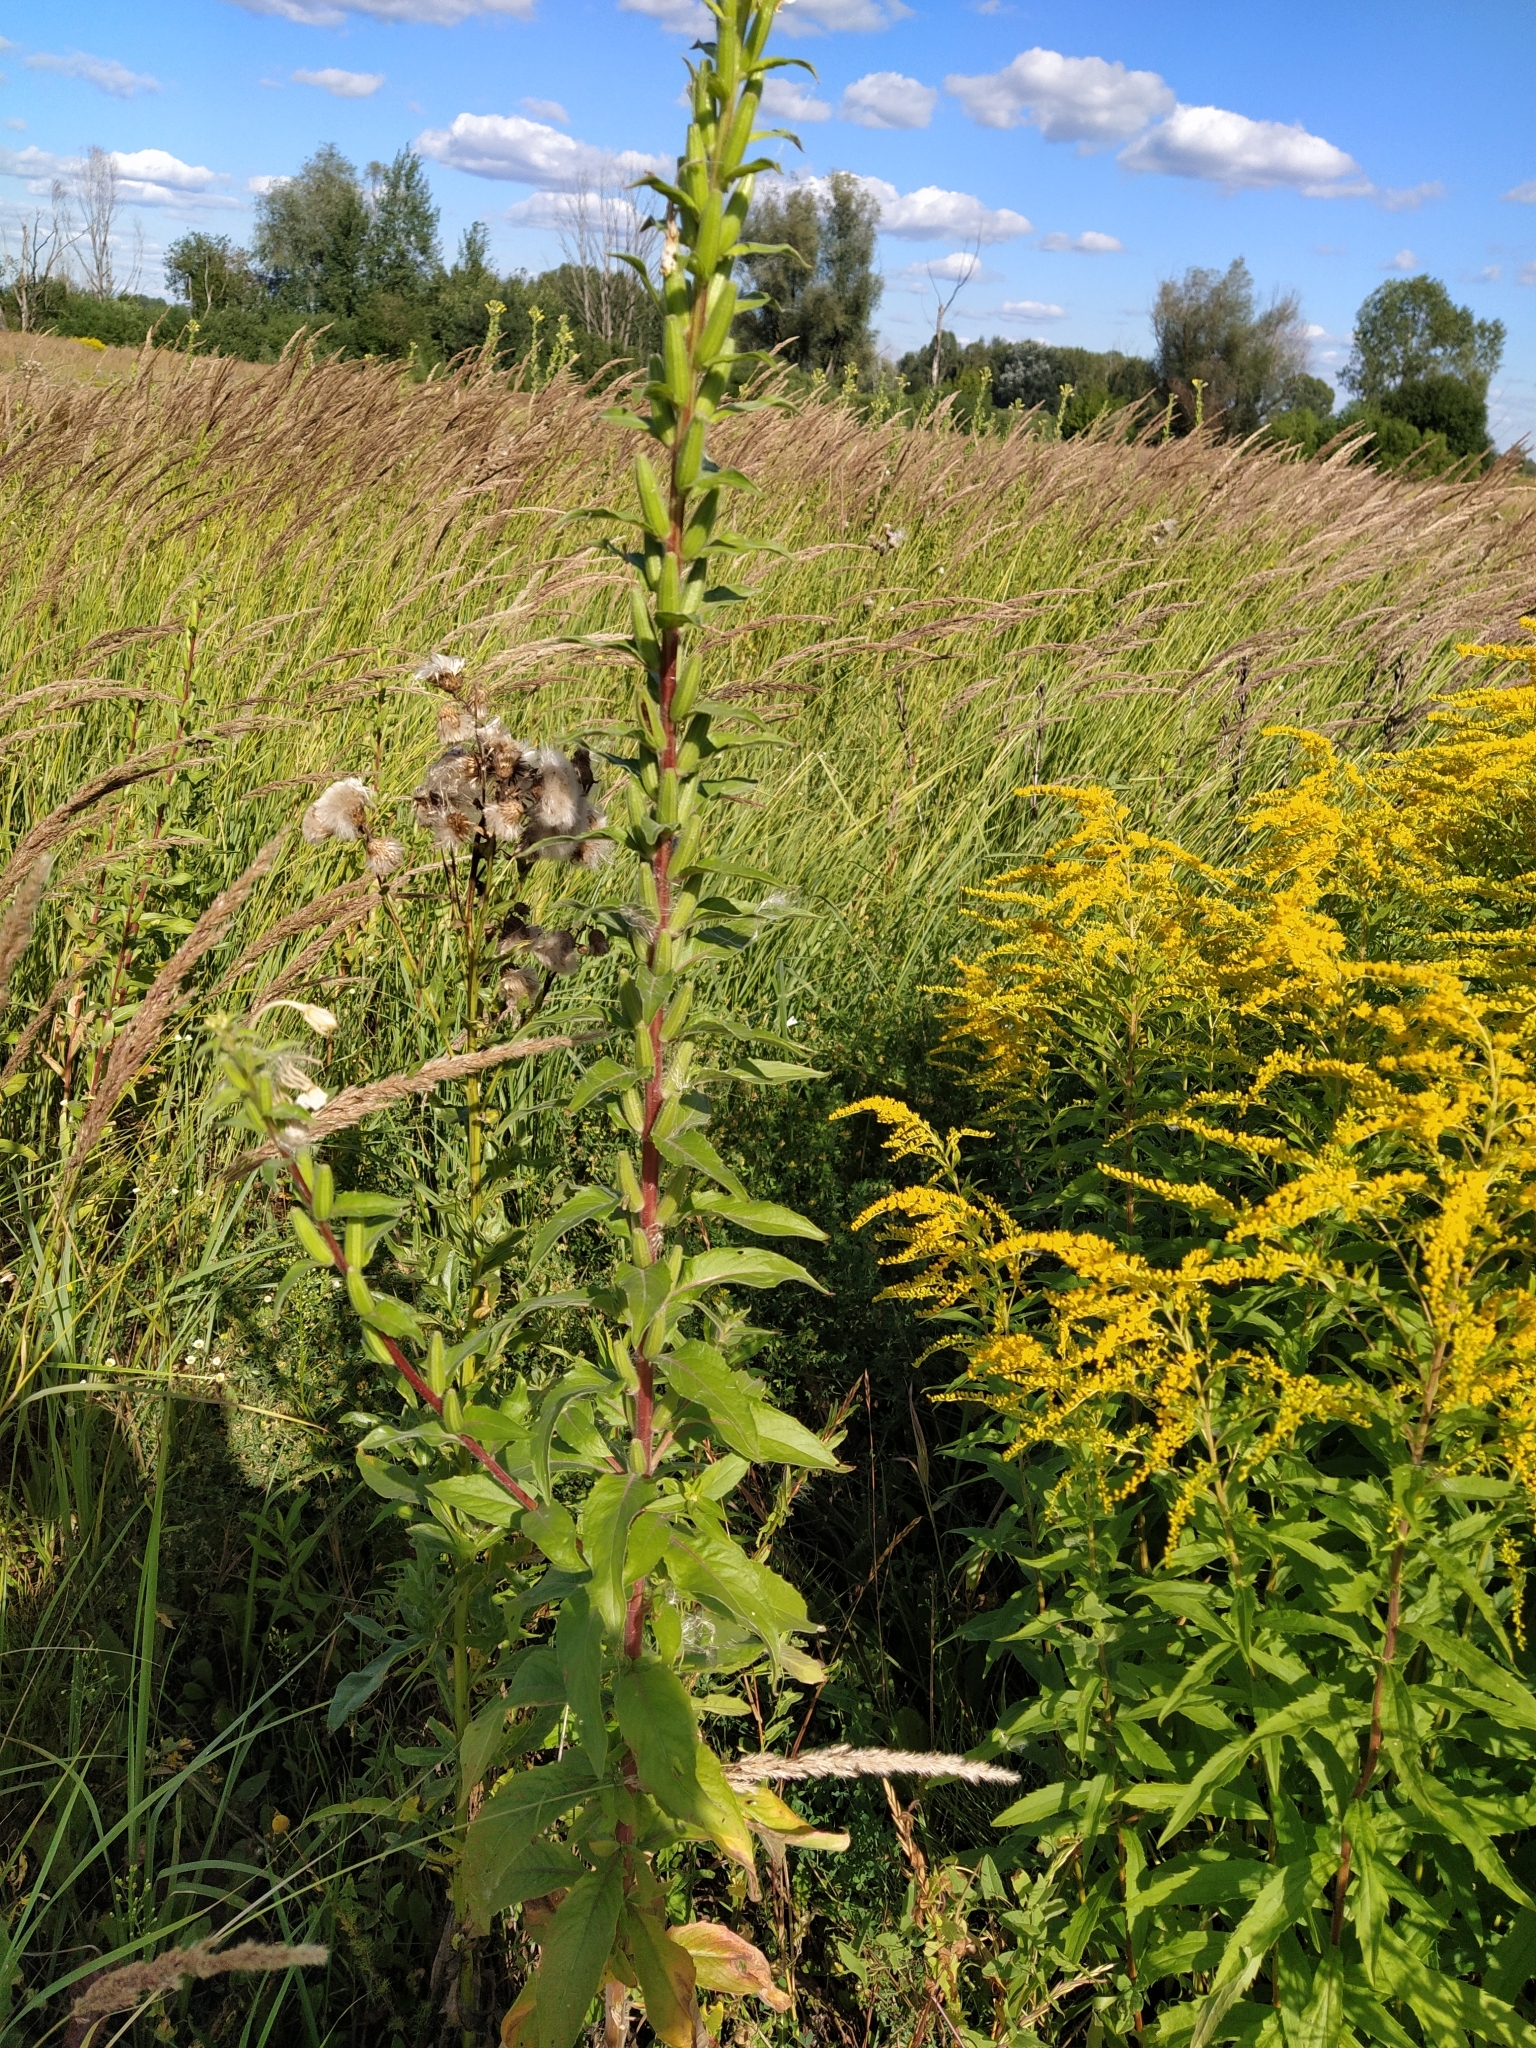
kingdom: Plantae
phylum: Tracheophyta
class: Magnoliopsida
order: Myrtales
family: Onagraceae
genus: Oenothera
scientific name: Oenothera biennis
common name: Common evening-primrose
